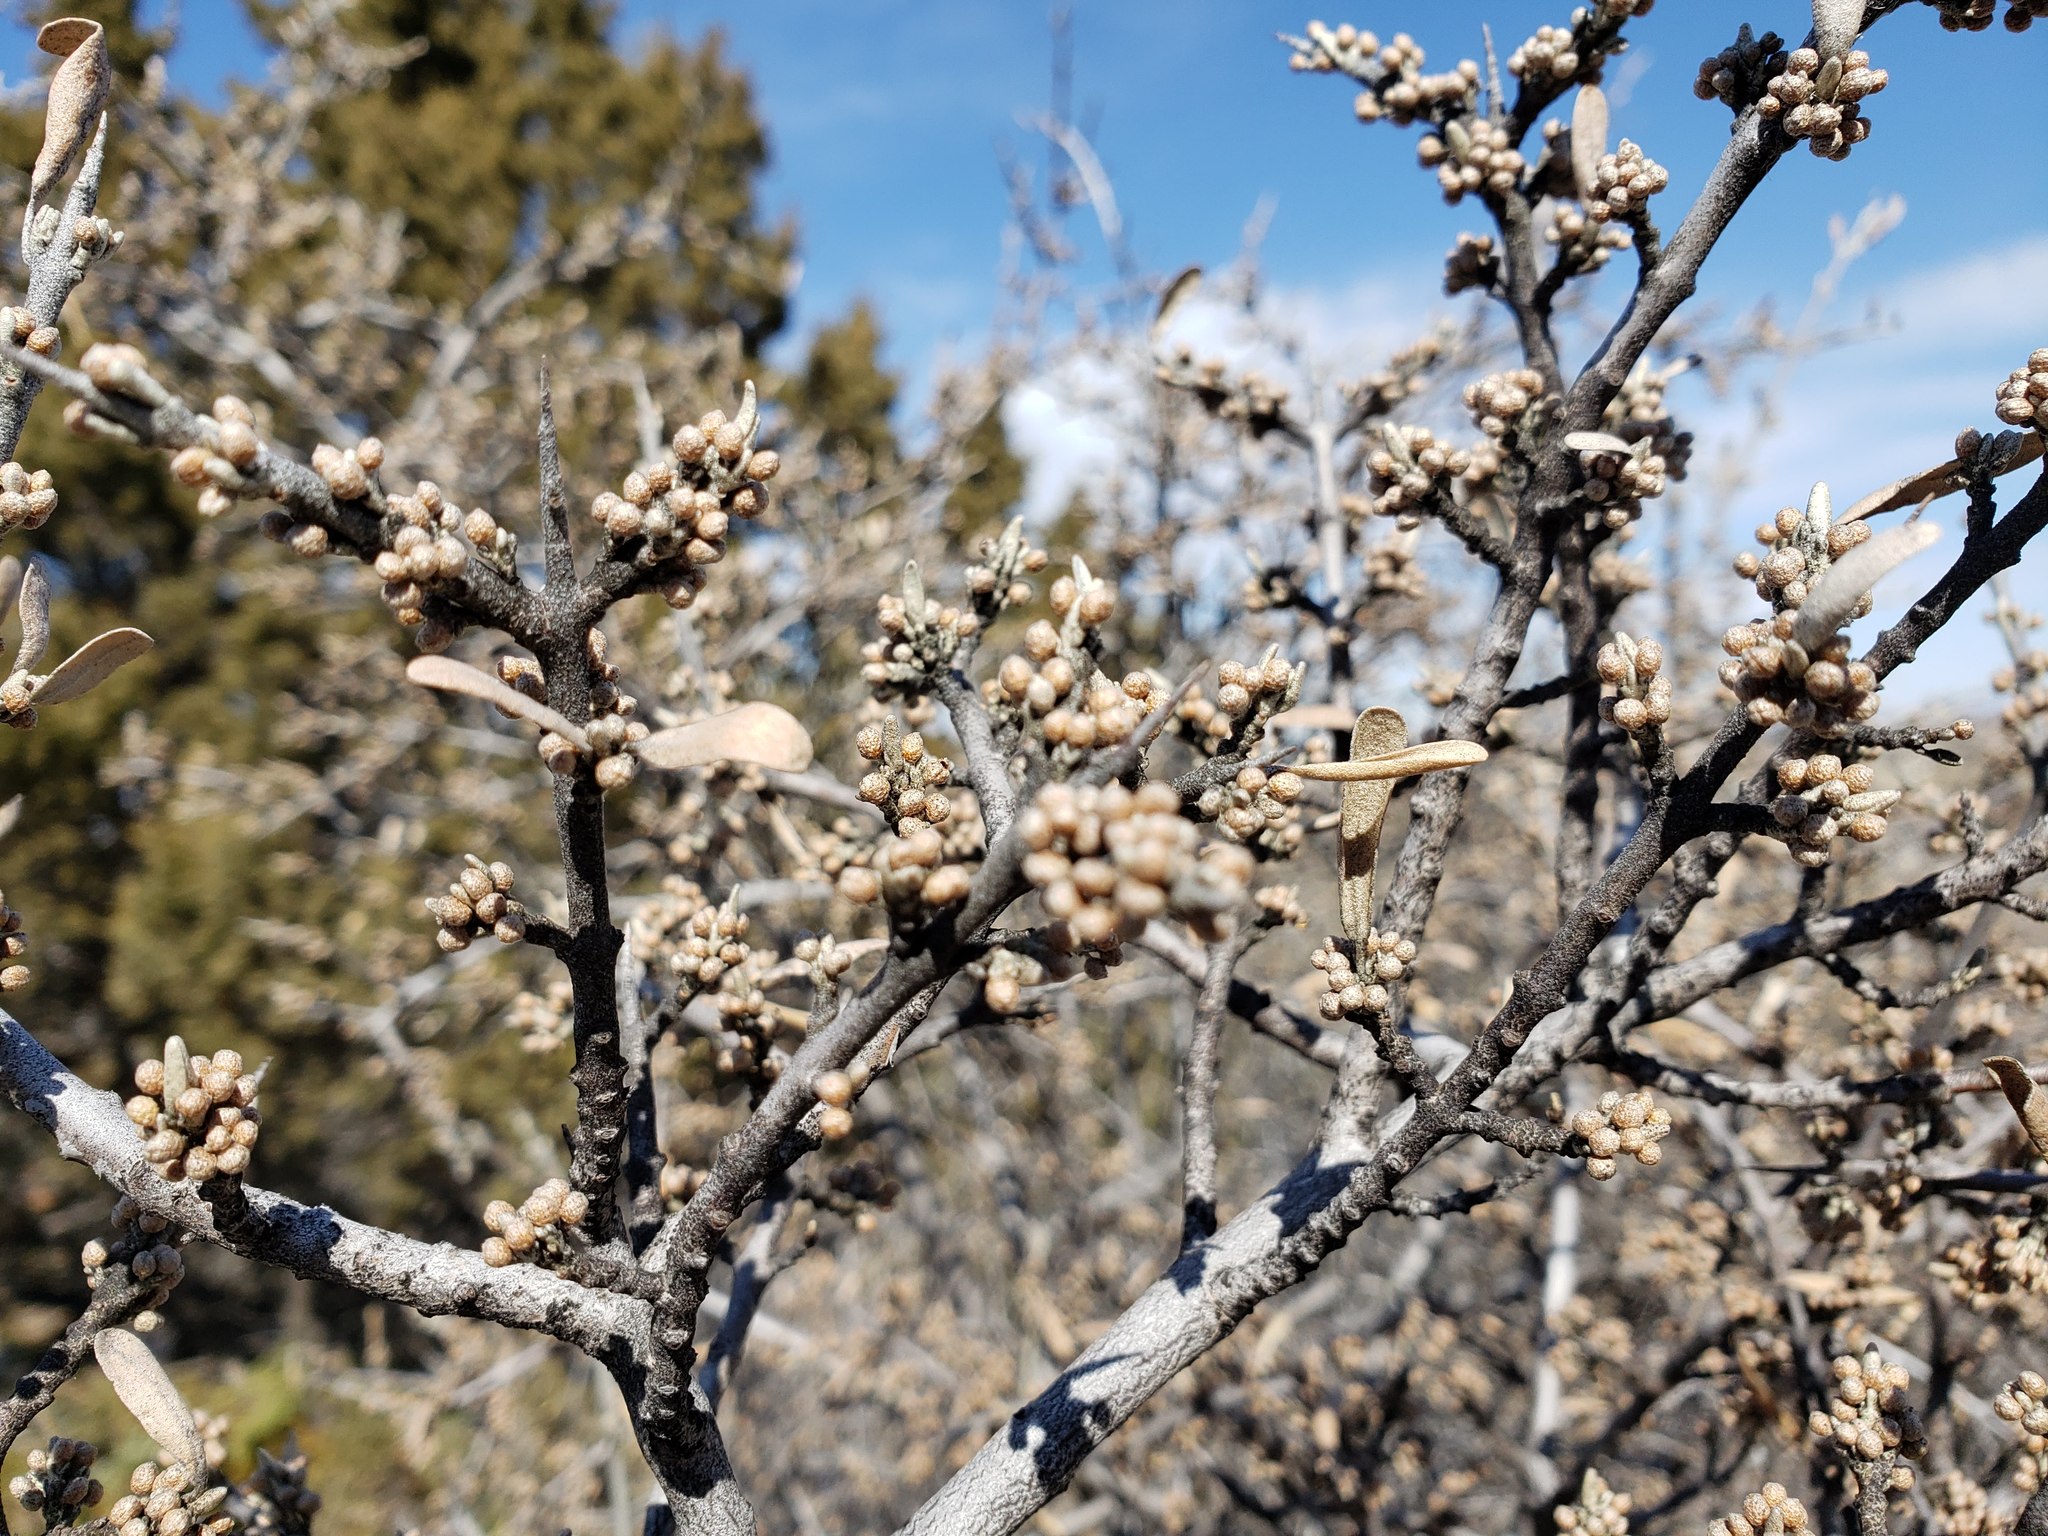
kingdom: Plantae
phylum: Tracheophyta
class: Magnoliopsida
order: Rosales
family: Elaeagnaceae
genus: Shepherdia
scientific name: Shepherdia argentea
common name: Silver buffaloberry
